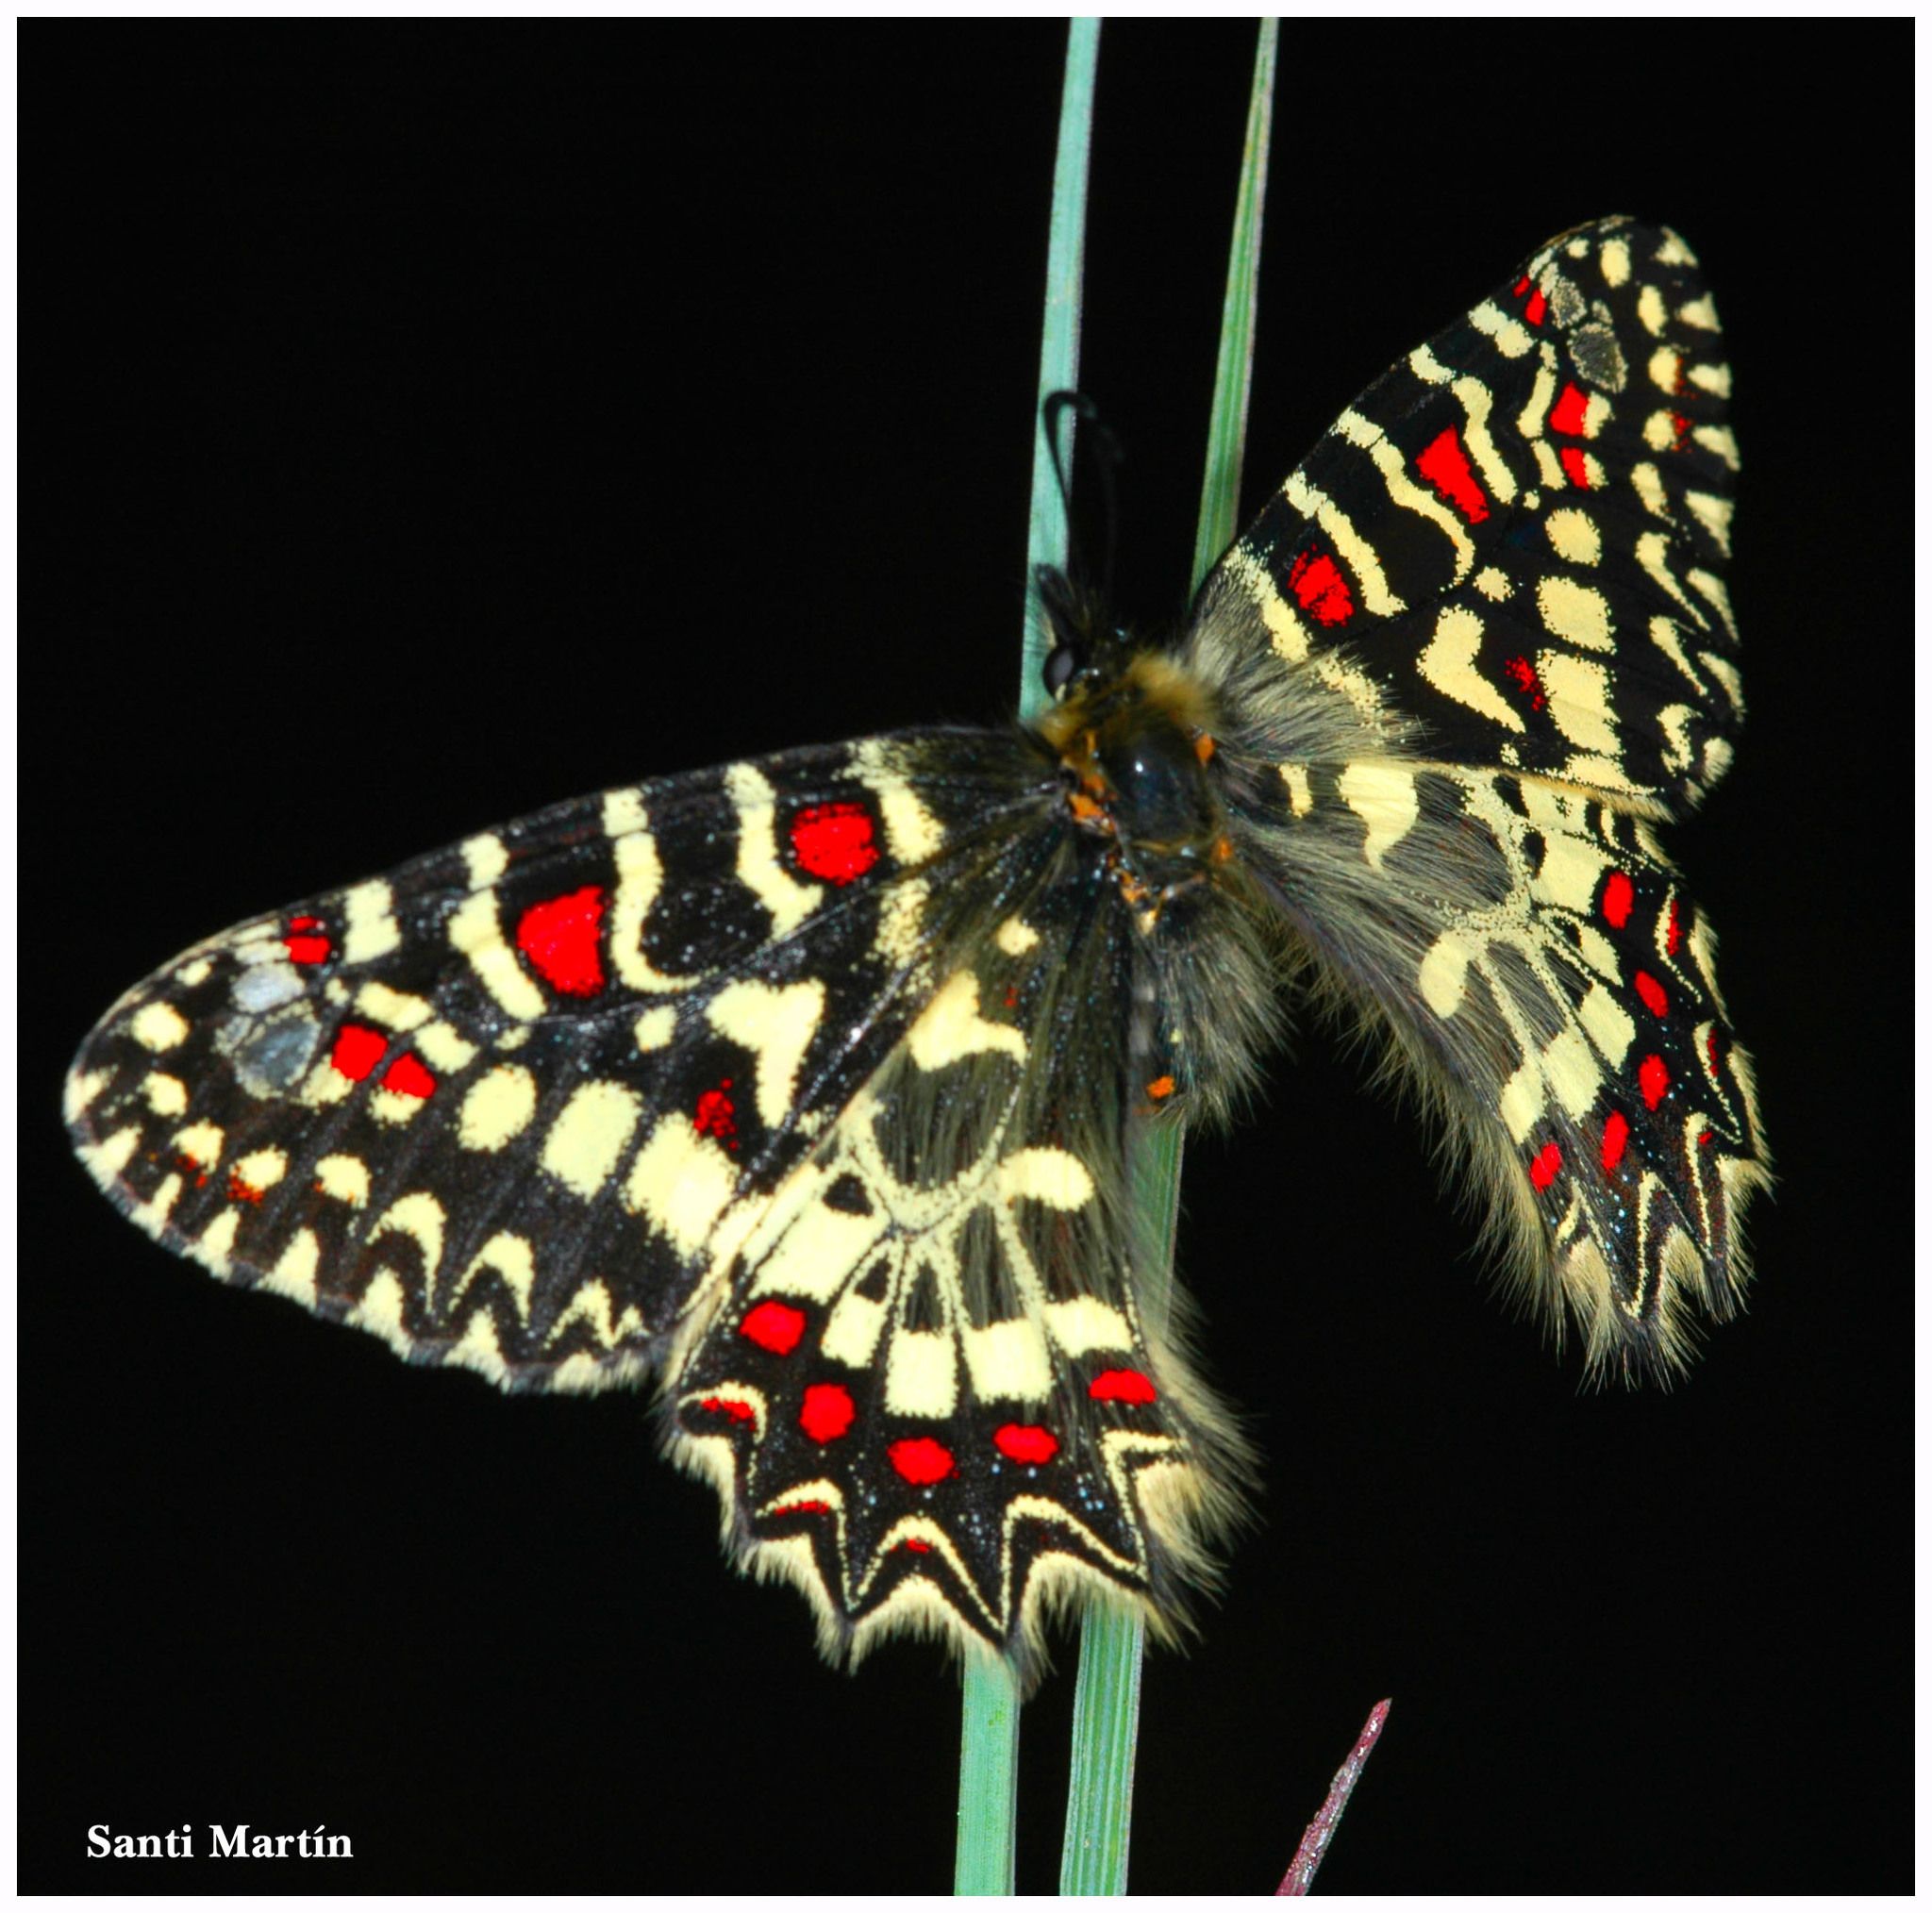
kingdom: Animalia
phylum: Arthropoda
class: Insecta
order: Lepidoptera
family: Papilionidae
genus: Zerynthia
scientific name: Zerynthia rumina
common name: Spanish festoon
